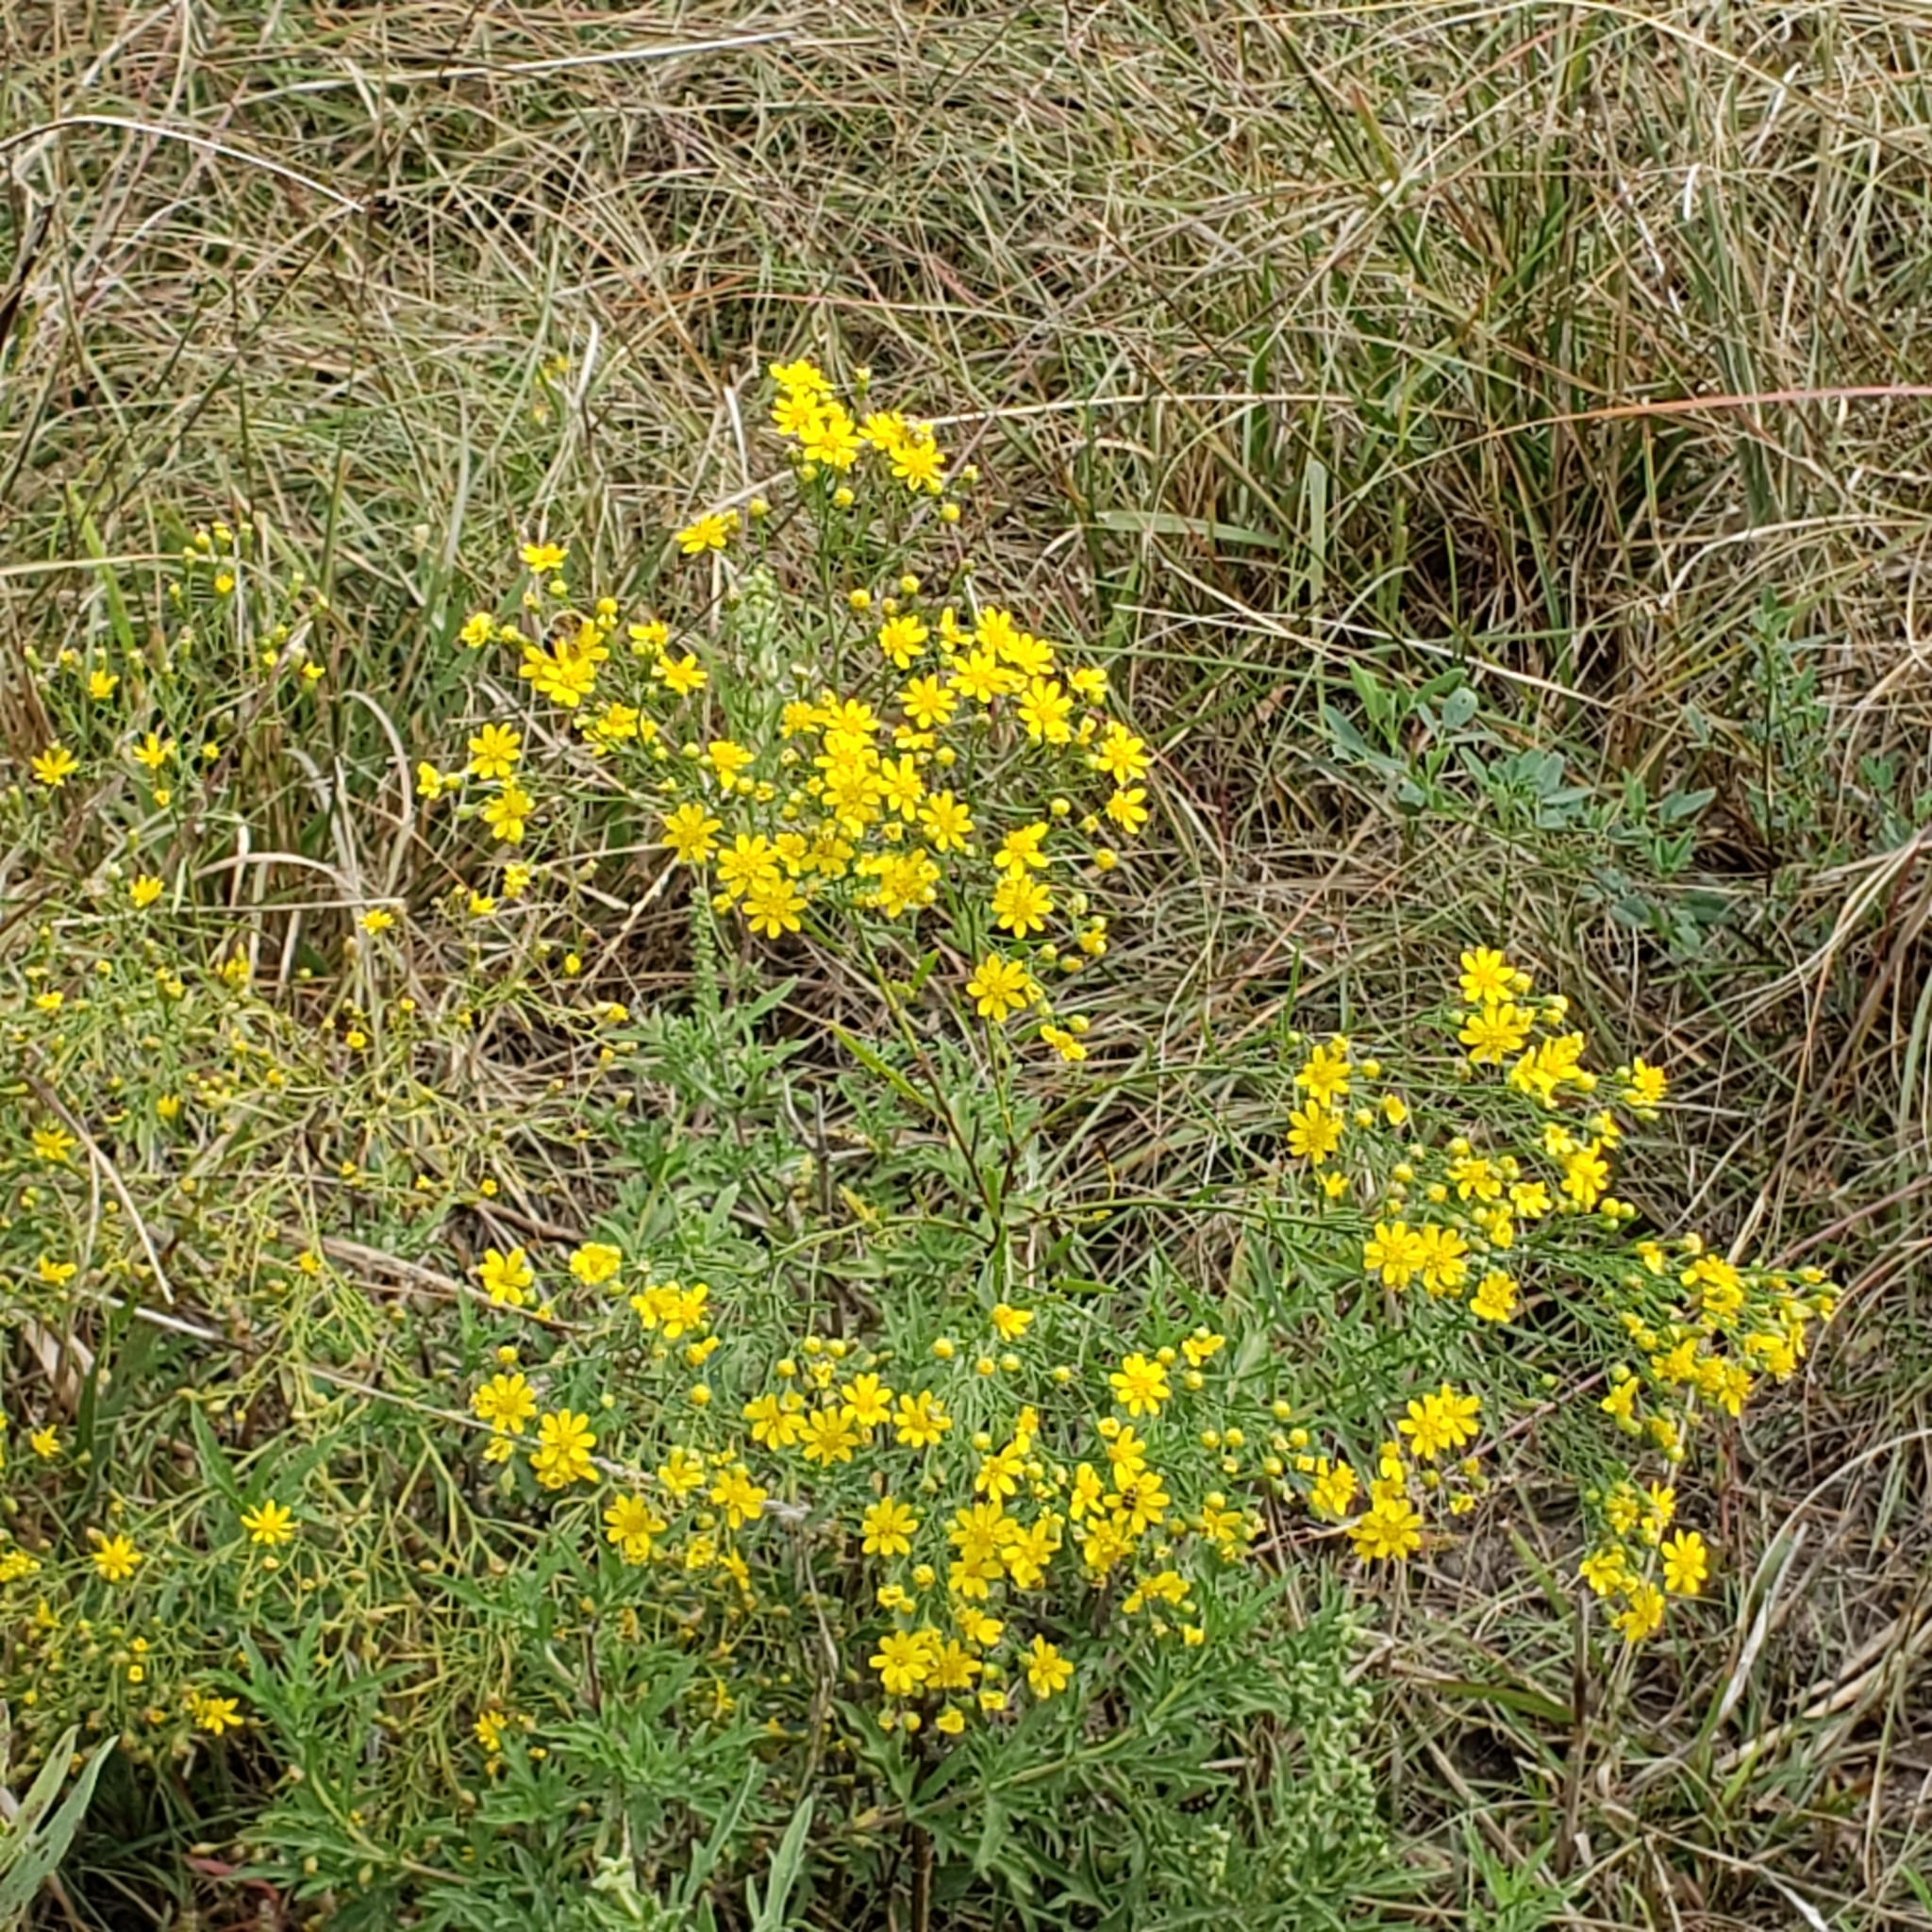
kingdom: Plantae
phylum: Tracheophyta
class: Magnoliopsida
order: Asterales
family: Asteraceae
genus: Amphiachyris
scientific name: Amphiachyris dracunculoides
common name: Broomweed
